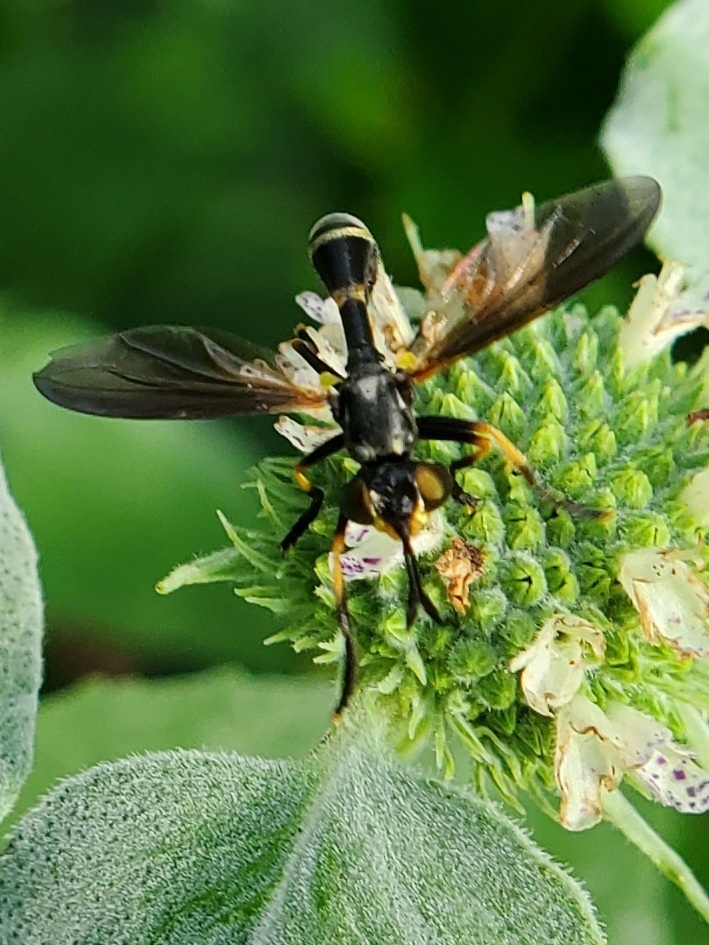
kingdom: Animalia
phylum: Arthropoda
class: Insecta
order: Diptera
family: Conopidae
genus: Physoconops
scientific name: Physoconops obscuripennis
